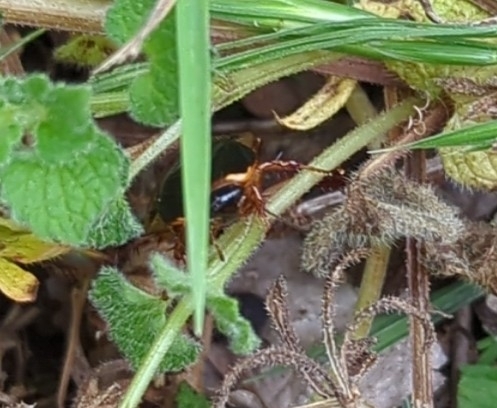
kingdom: Animalia
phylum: Arthropoda
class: Insecta
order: Blattodea
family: Blaberidae
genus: Pycnoscelus
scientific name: Pycnoscelus surinamensis
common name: Surinam cockroach
